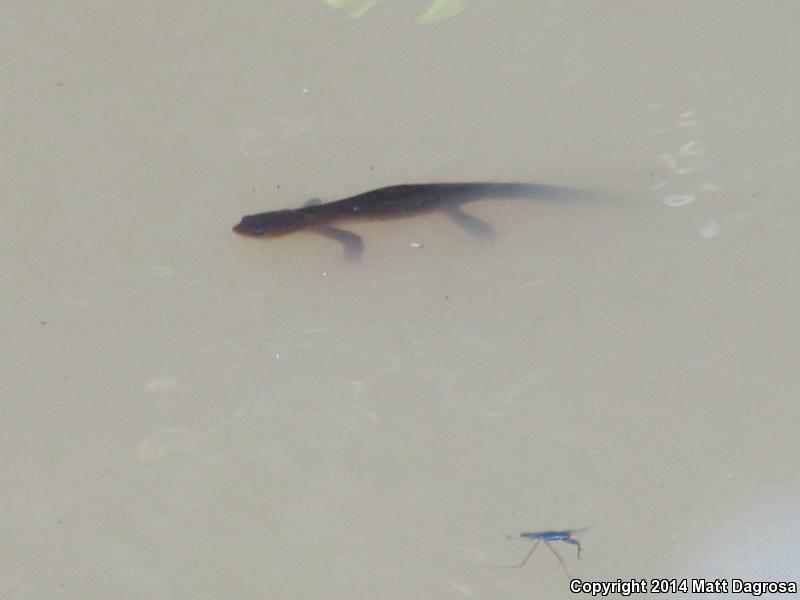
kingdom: Animalia
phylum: Chordata
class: Amphibia
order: Caudata
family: Salamandridae
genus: Taricha
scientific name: Taricha granulosa
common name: Roughskin newt
